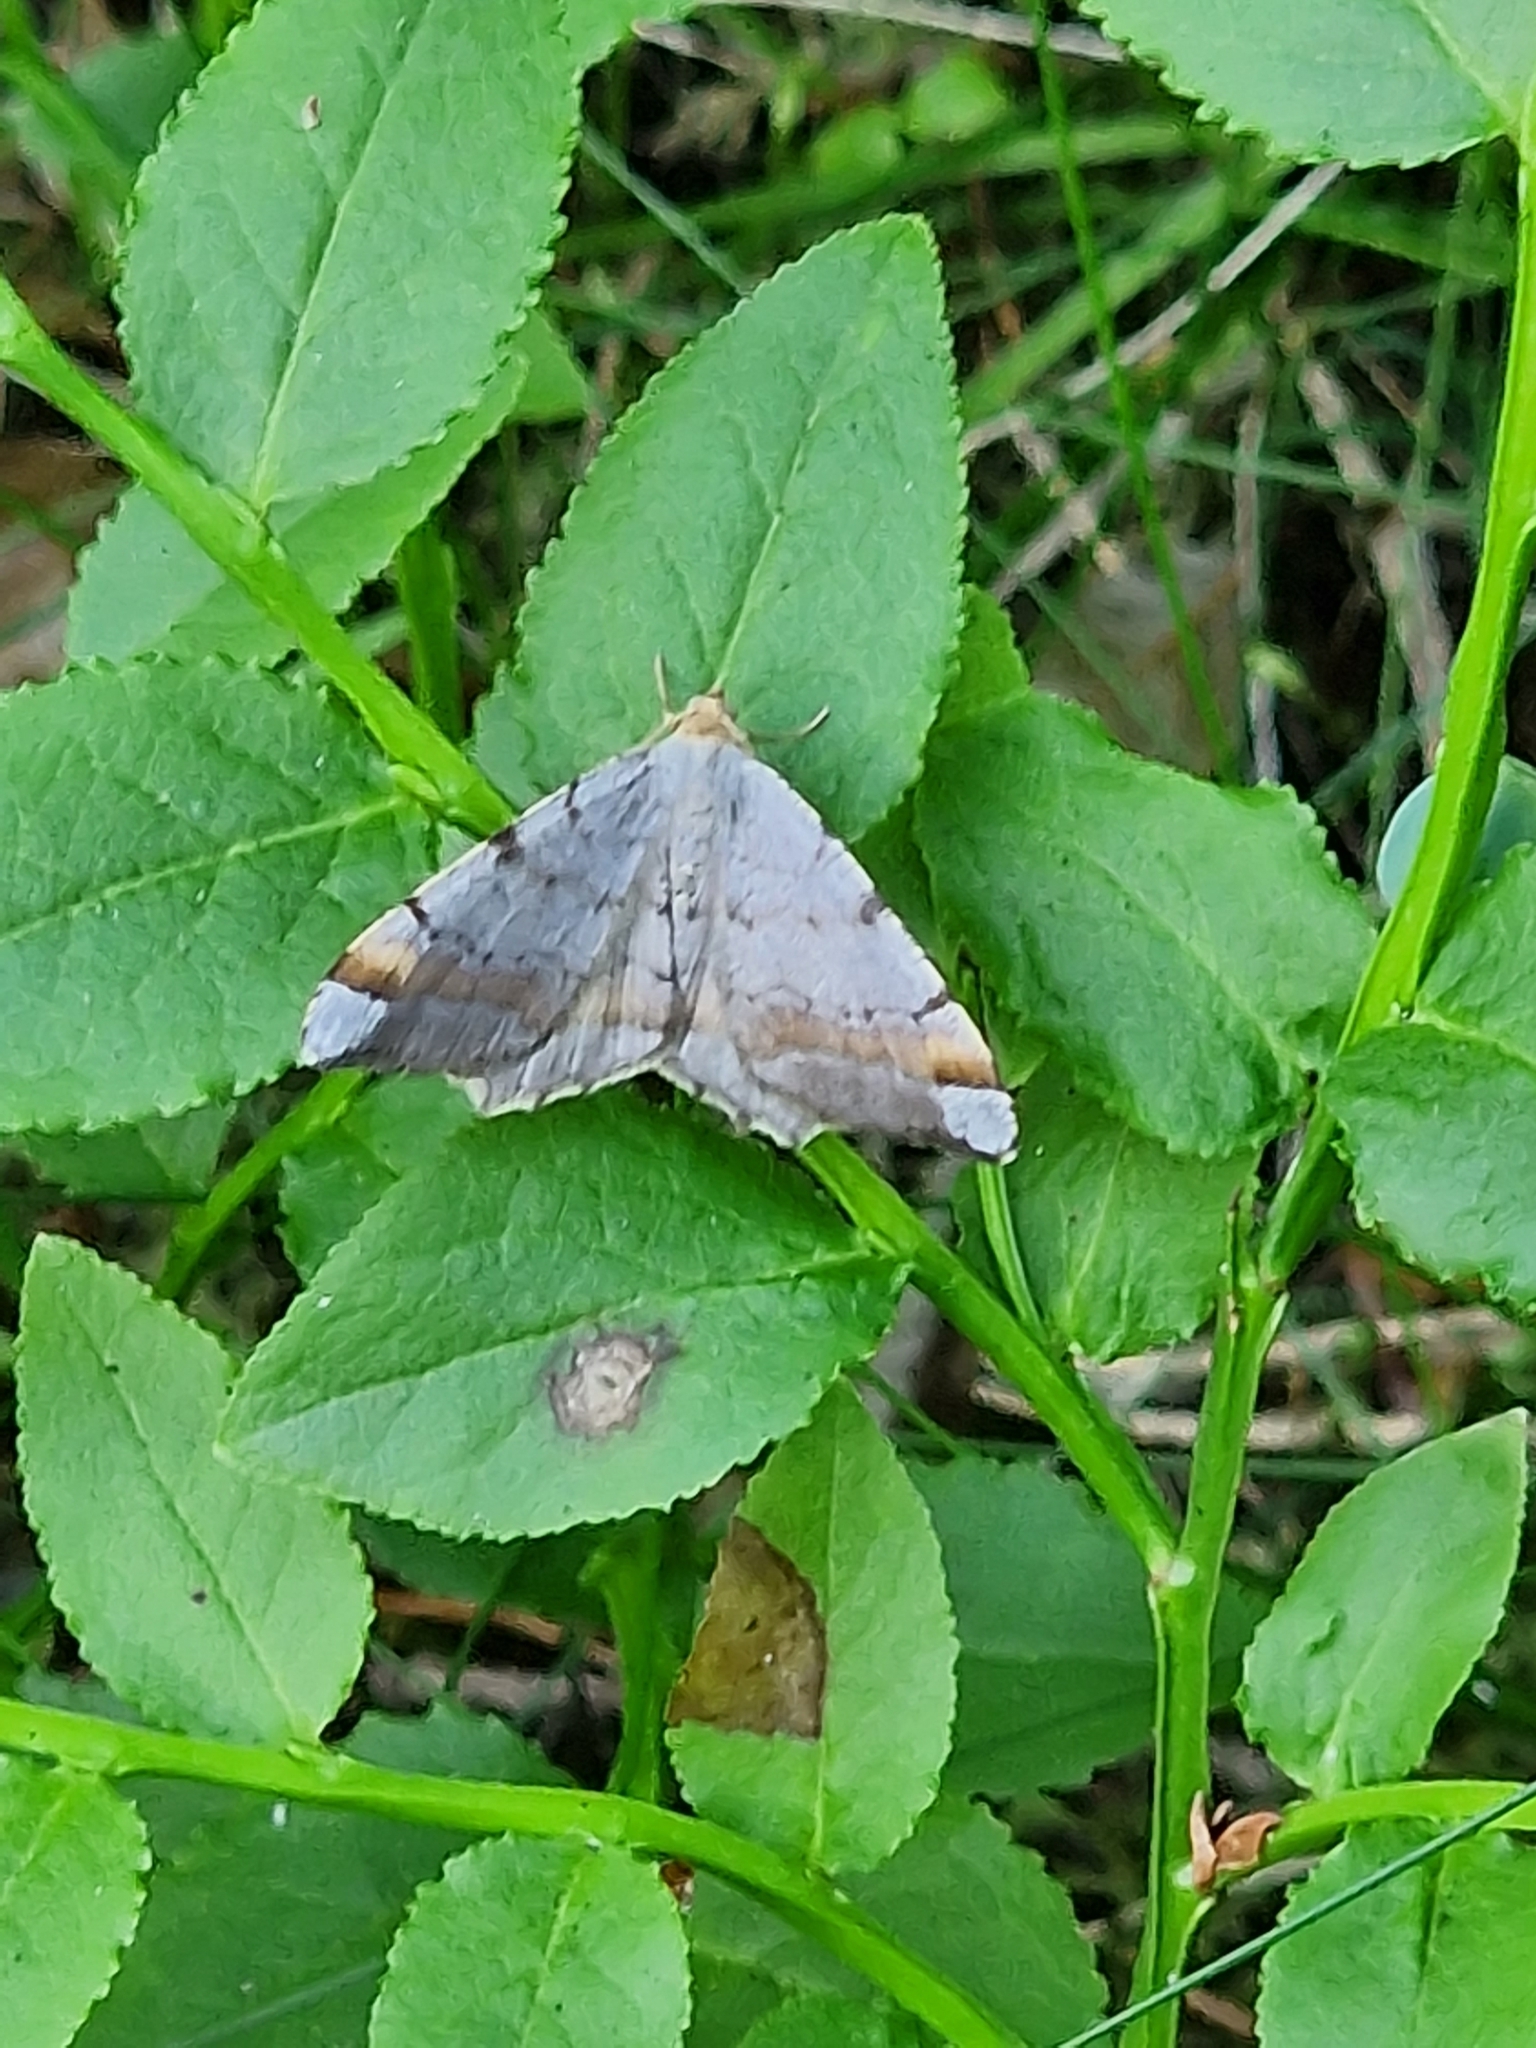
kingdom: Animalia
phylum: Arthropoda
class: Insecta
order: Lepidoptera
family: Geometridae
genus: Macaria
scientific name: Macaria liturata
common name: Tawny-barred angle
